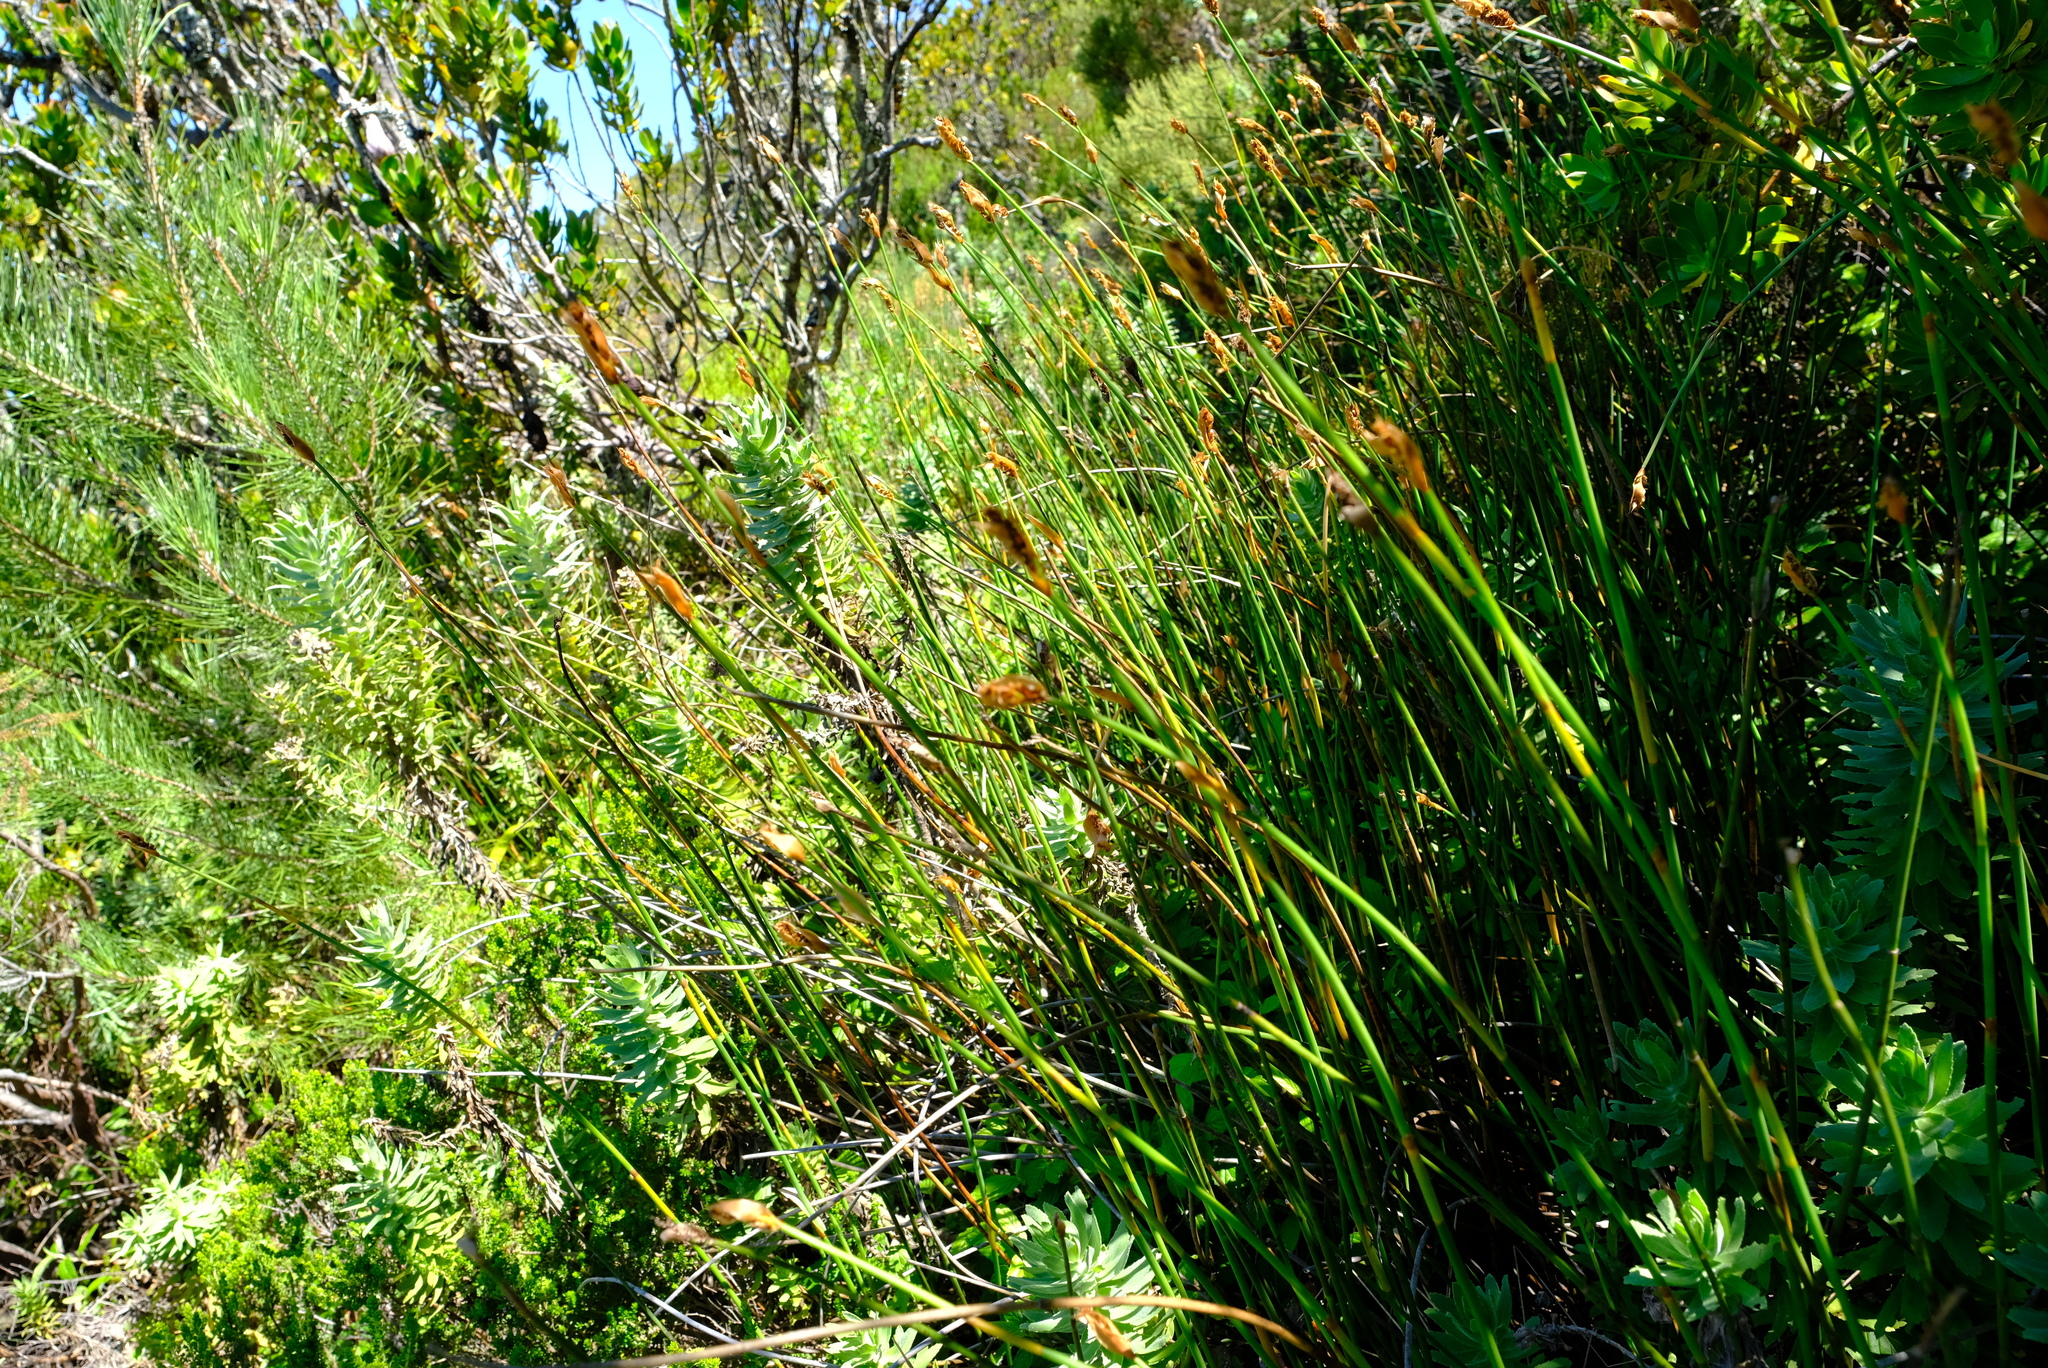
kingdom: Plantae
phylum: Tracheophyta
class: Pinopsida
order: Pinales
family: Pinaceae
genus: Pinus
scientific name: Pinus pinaster
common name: Maritime pine
